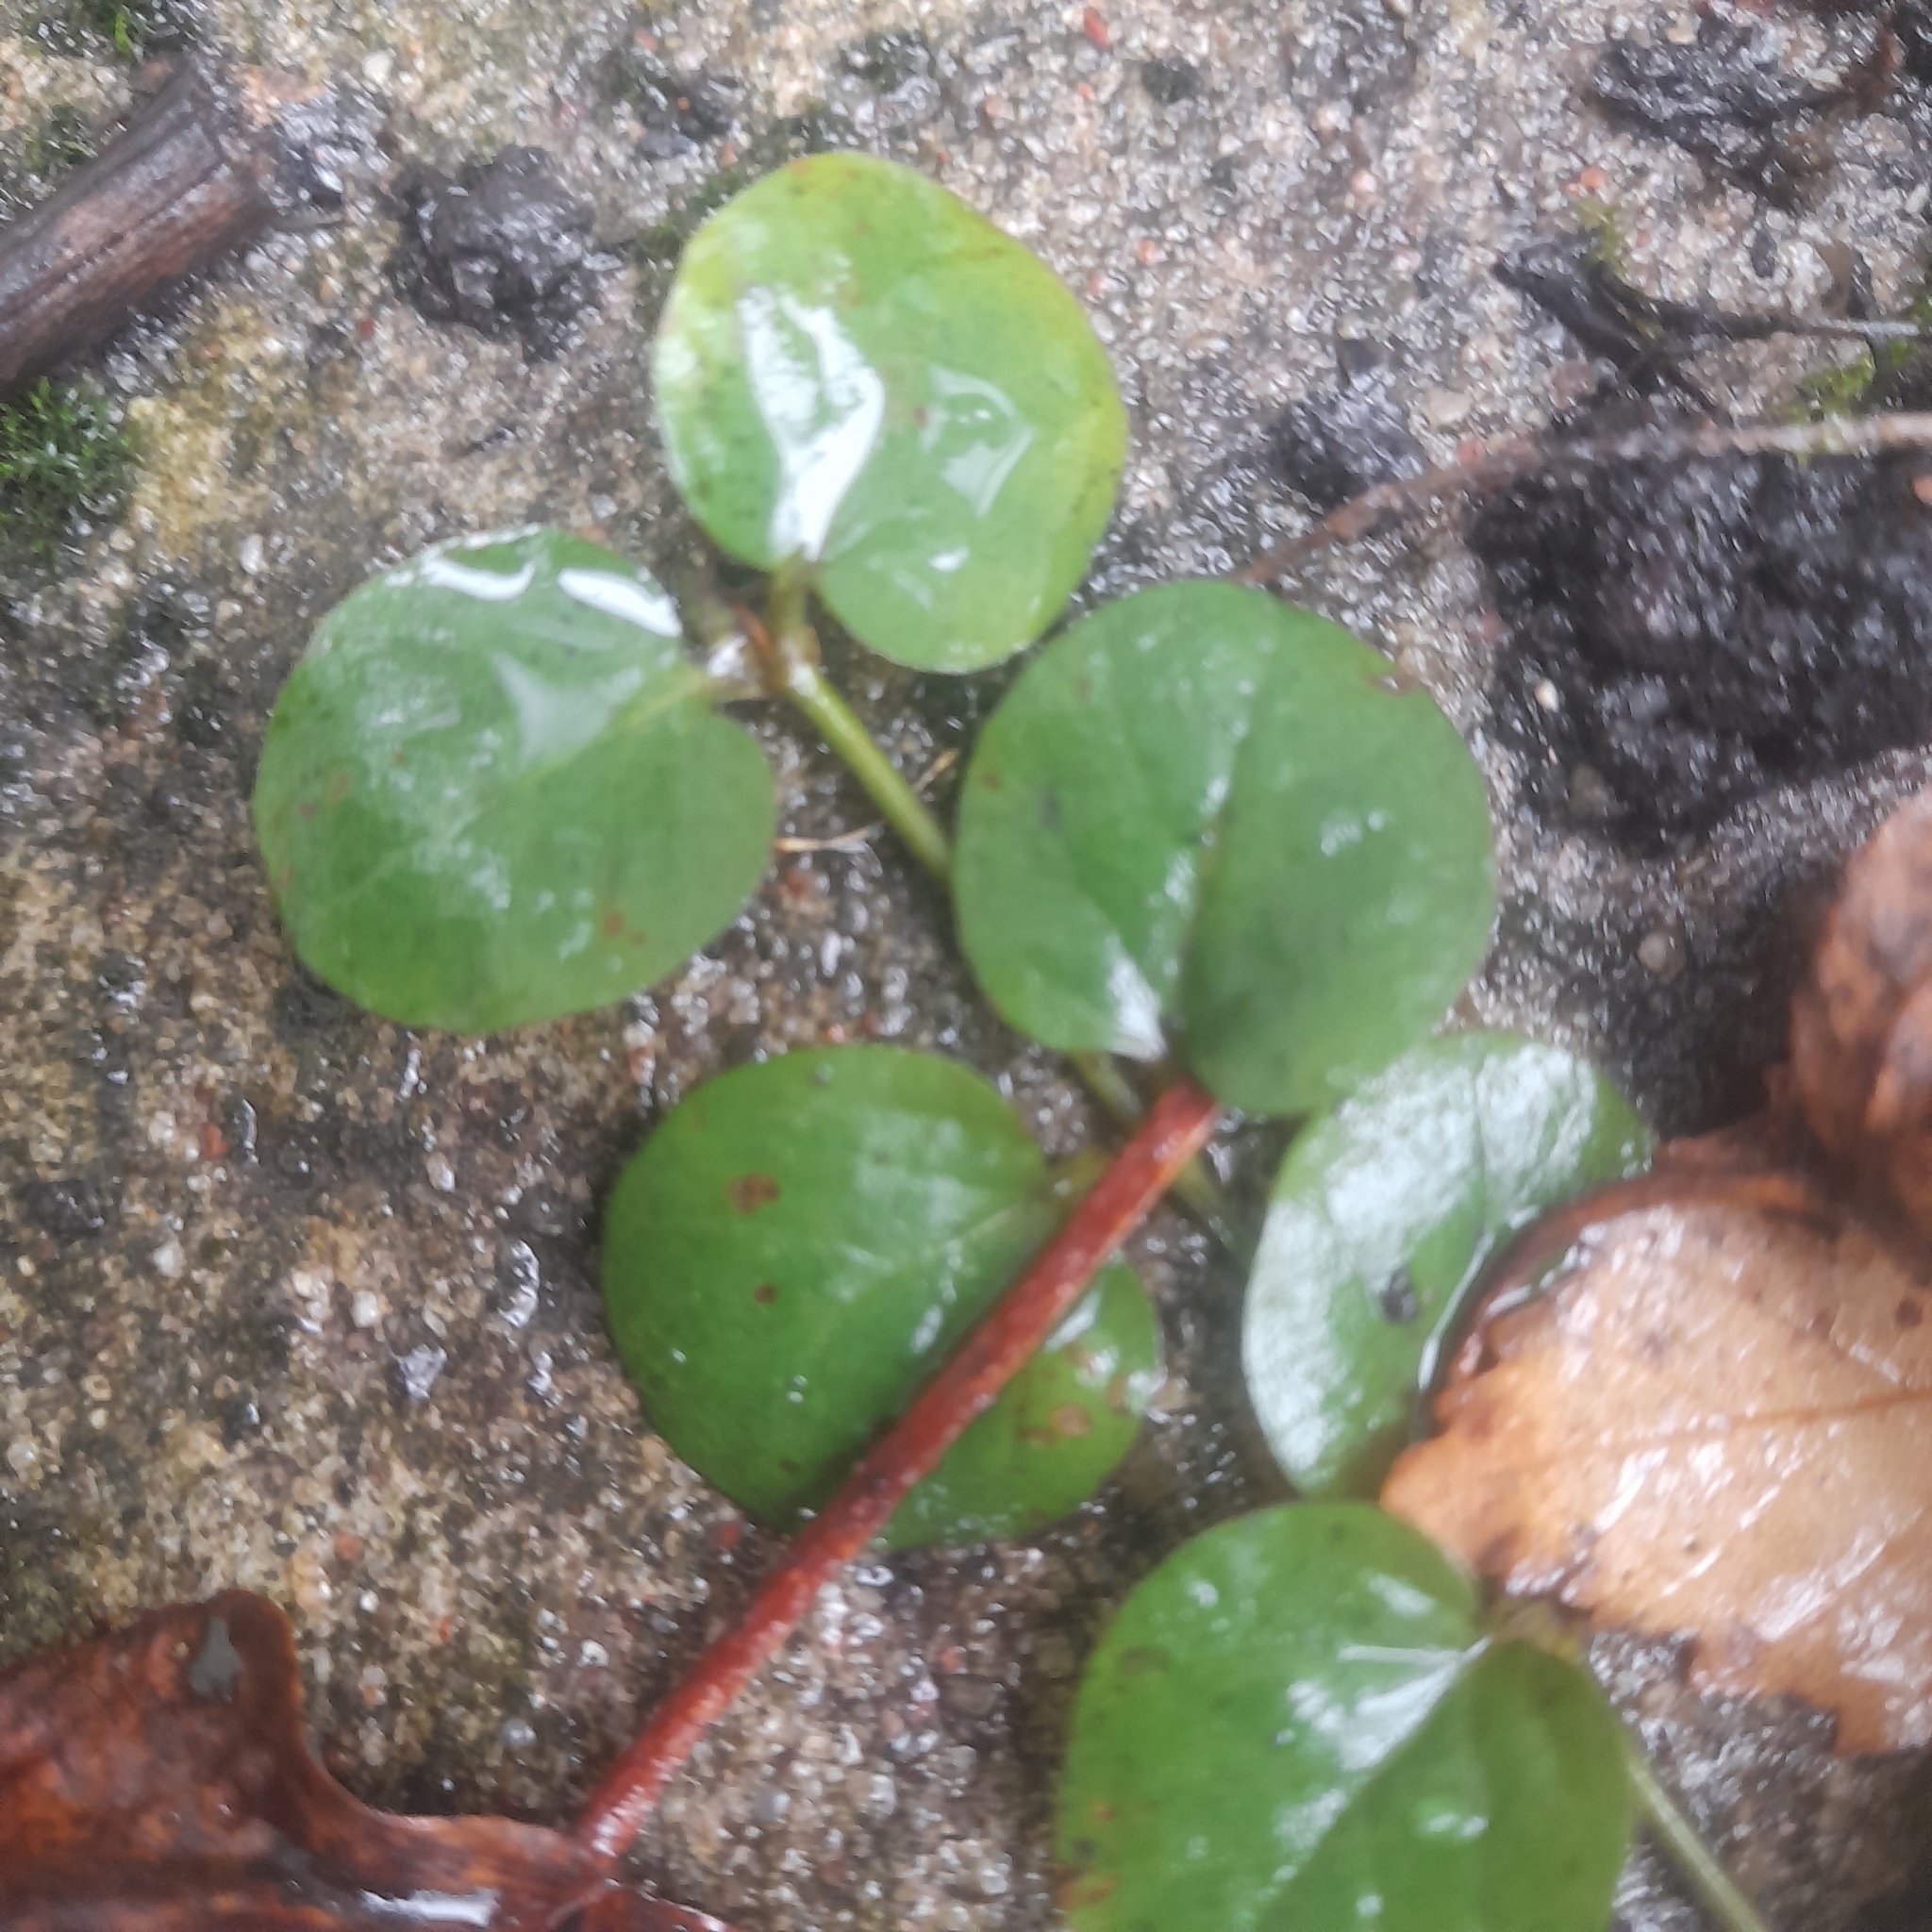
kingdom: Plantae
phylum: Tracheophyta
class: Magnoliopsida
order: Ericales
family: Primulaceae
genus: Lysimachia
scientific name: Lysimachia nummularia
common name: Moneywort
